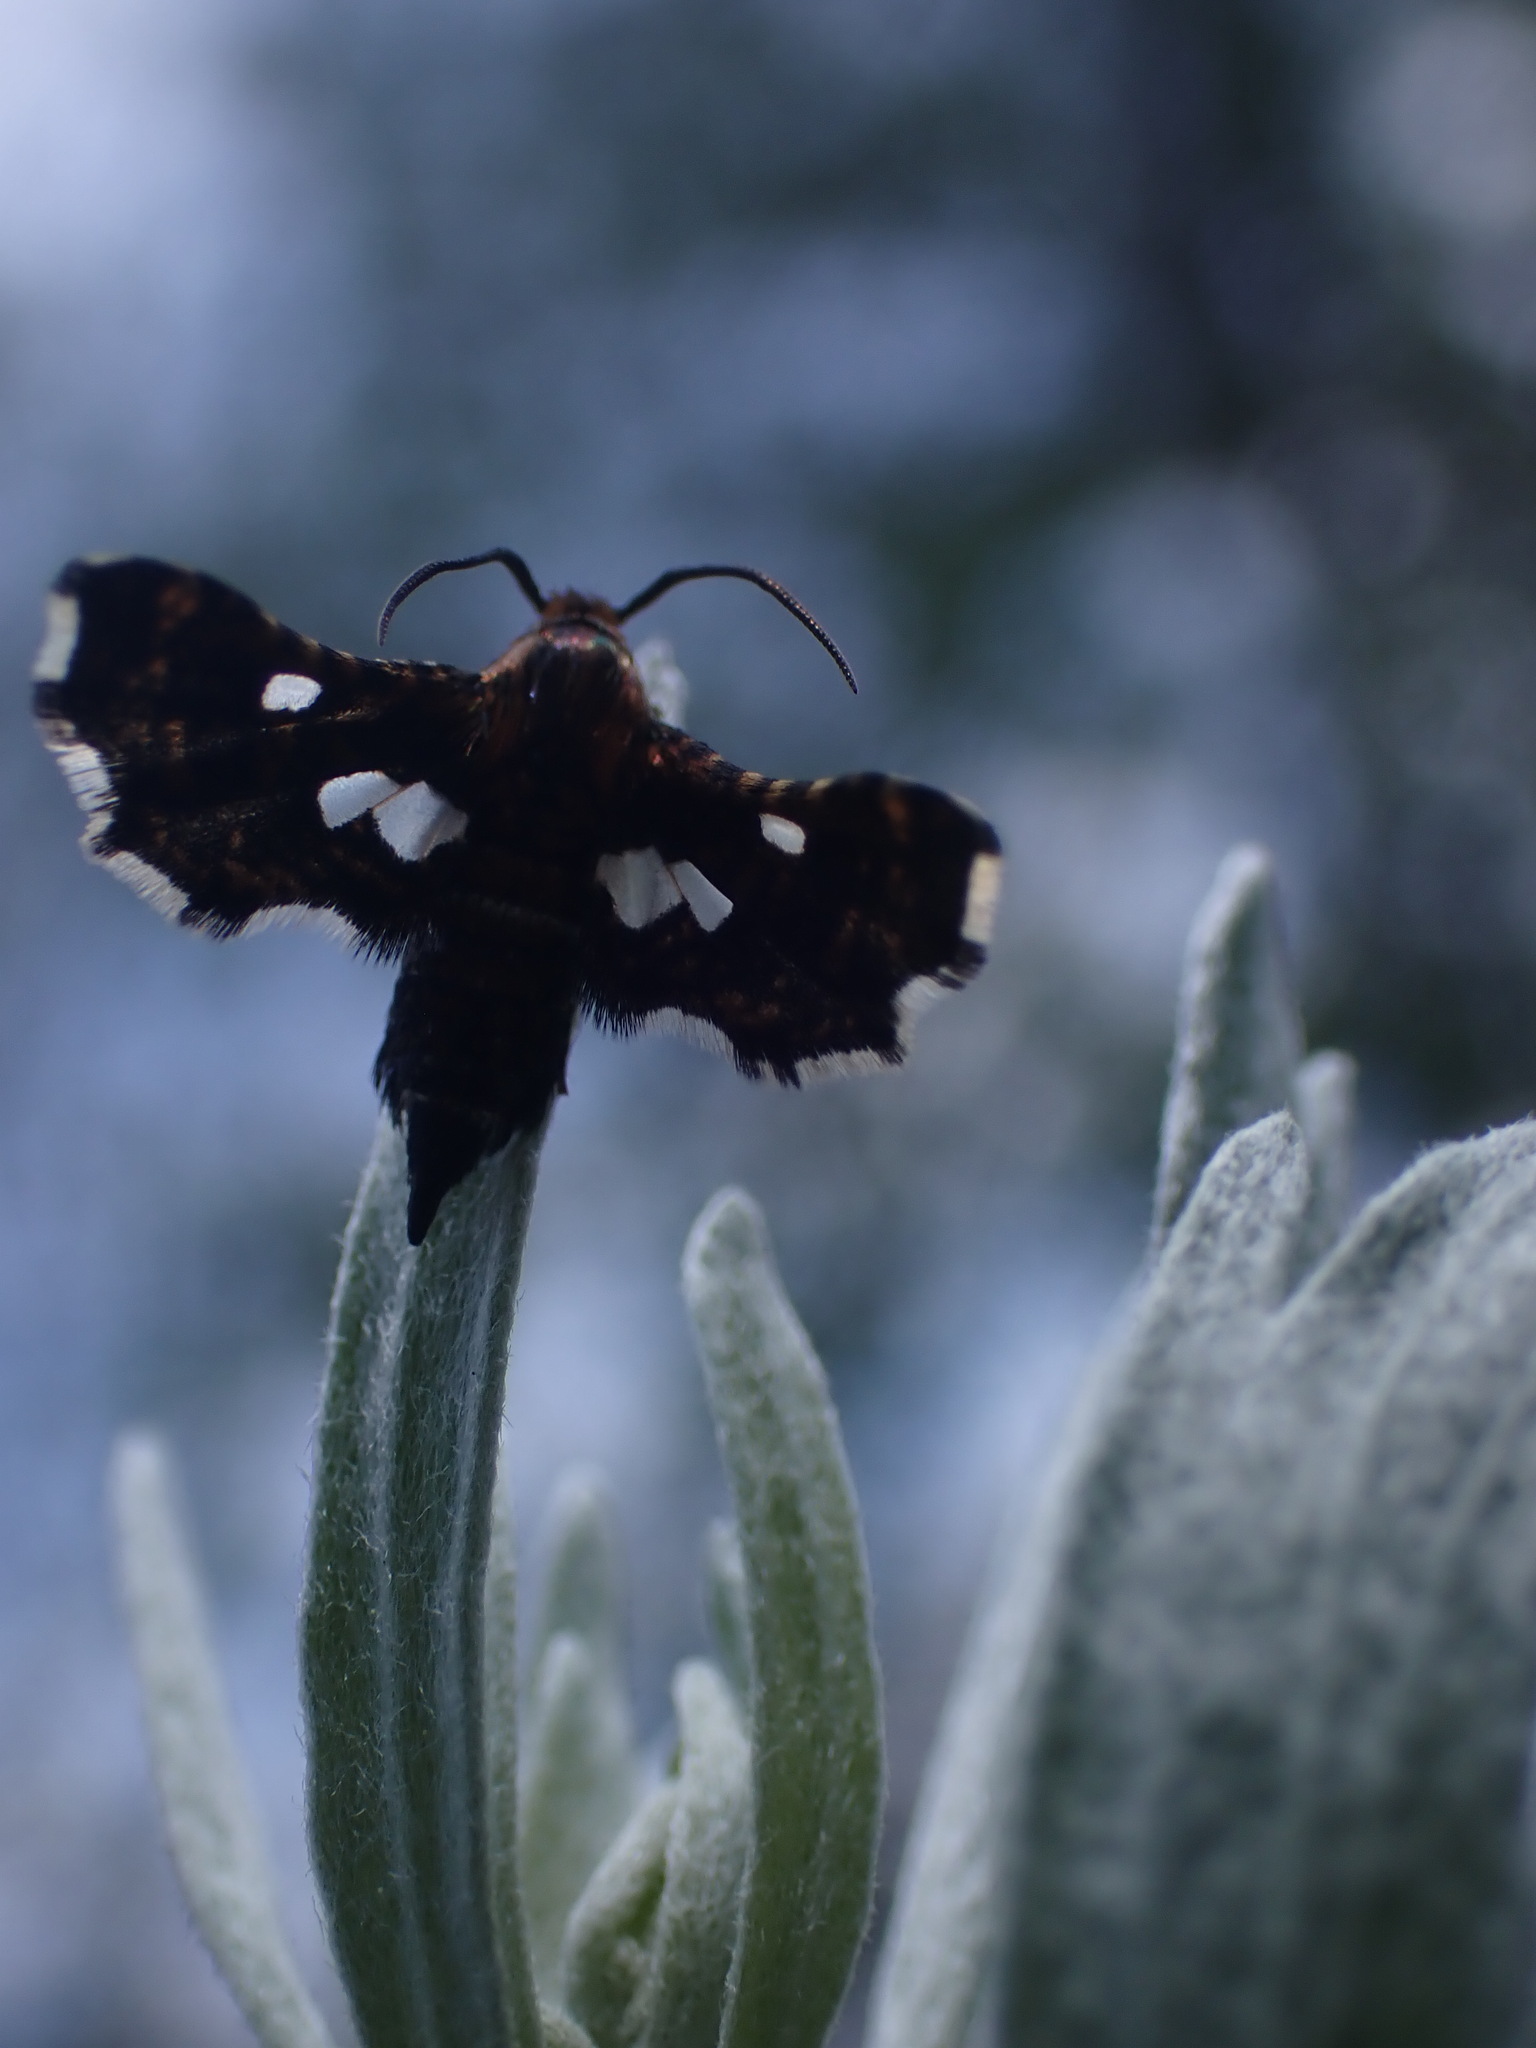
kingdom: Animalia
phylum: Arthropoda
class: Insecta
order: Lepidoptera
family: Thyrididae
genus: Thyris
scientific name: Thyris maculata
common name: Spotted thyris moth
